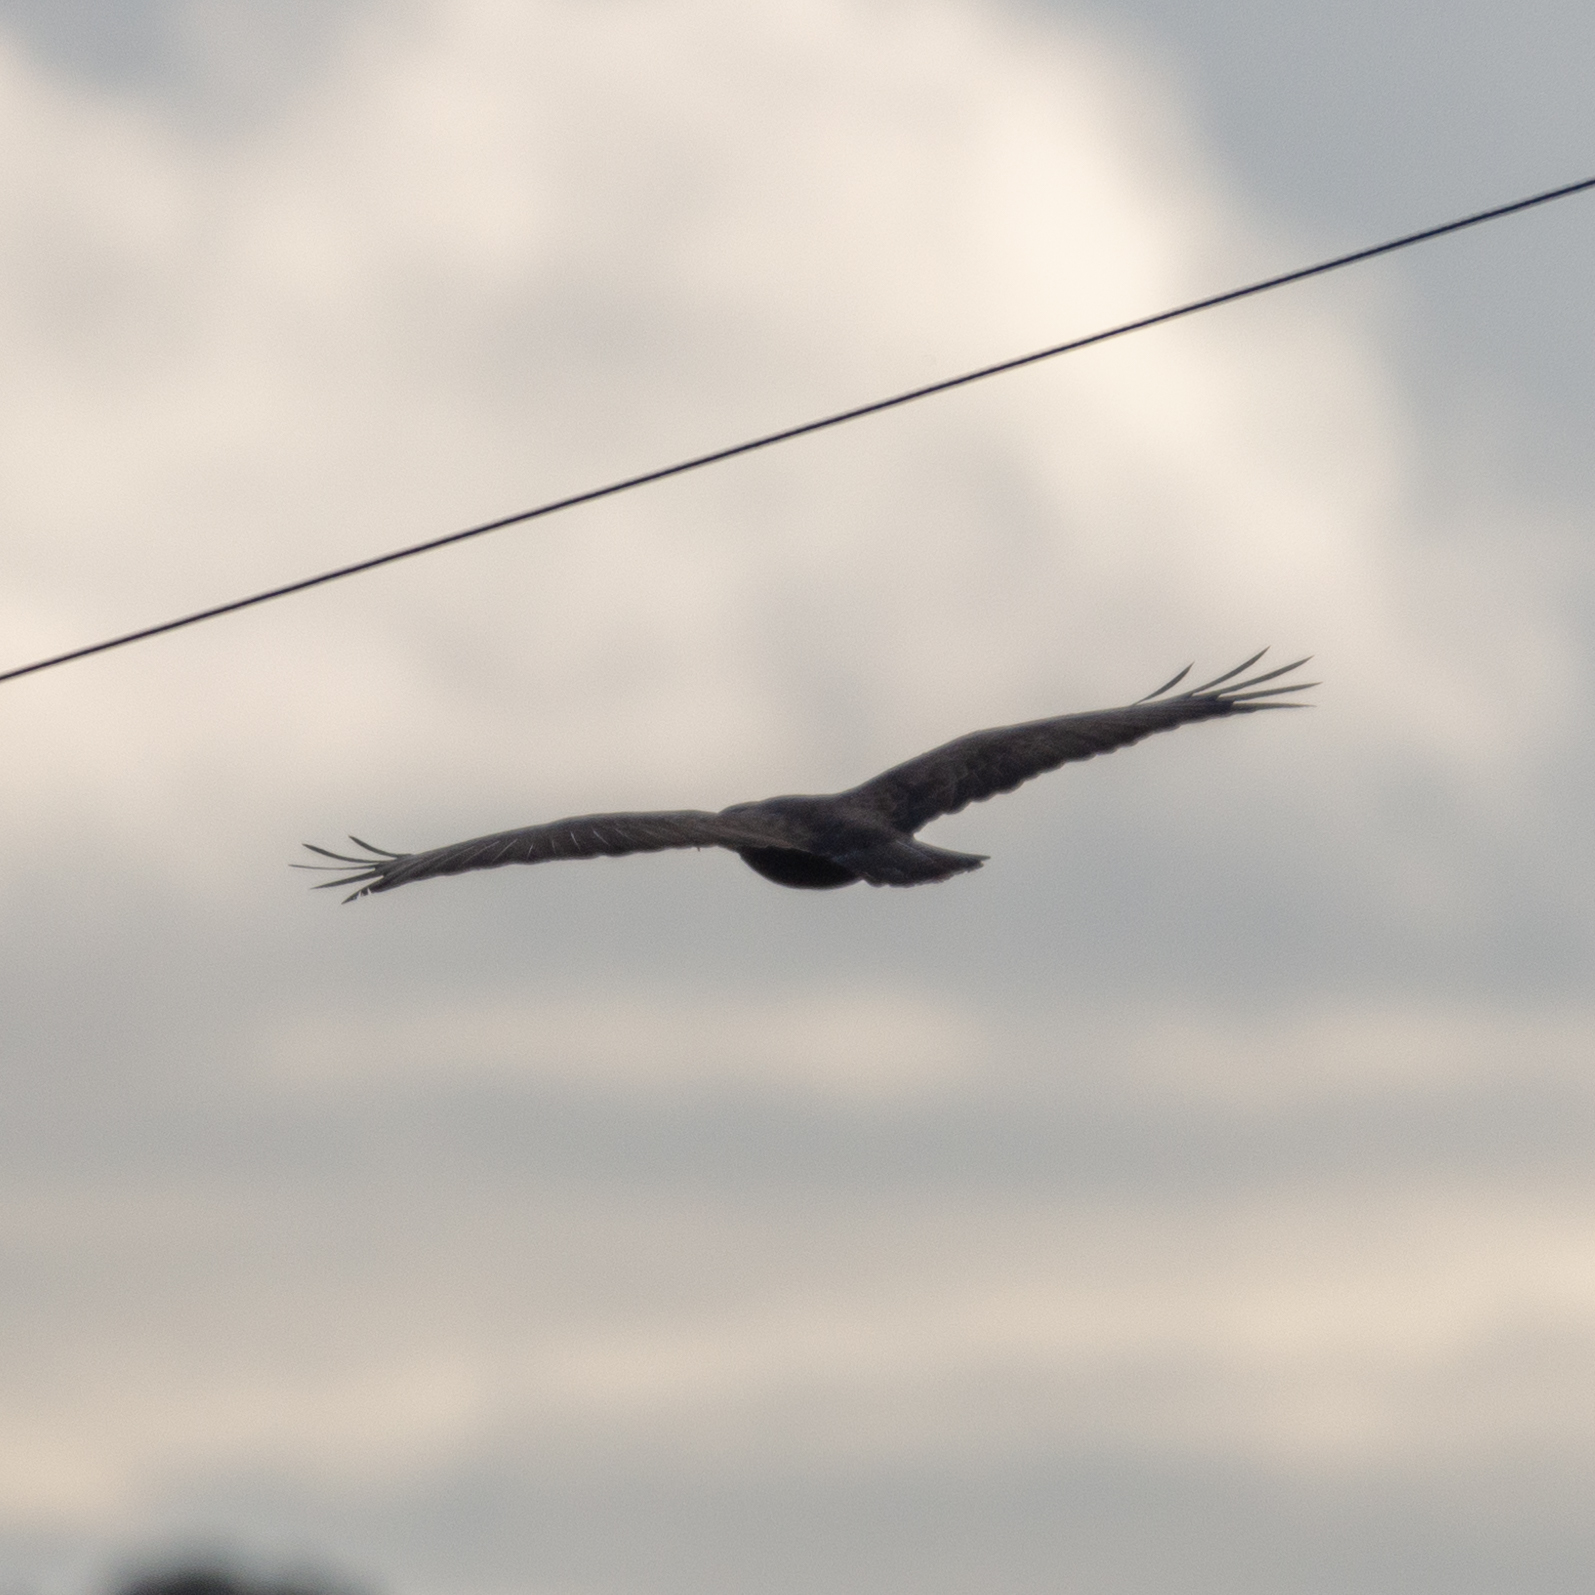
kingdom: Animalia
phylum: Chordata
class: Aves
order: Accipitriformes
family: Accipitridae
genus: Buteo
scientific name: Buteo buteo
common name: Common buzzard
